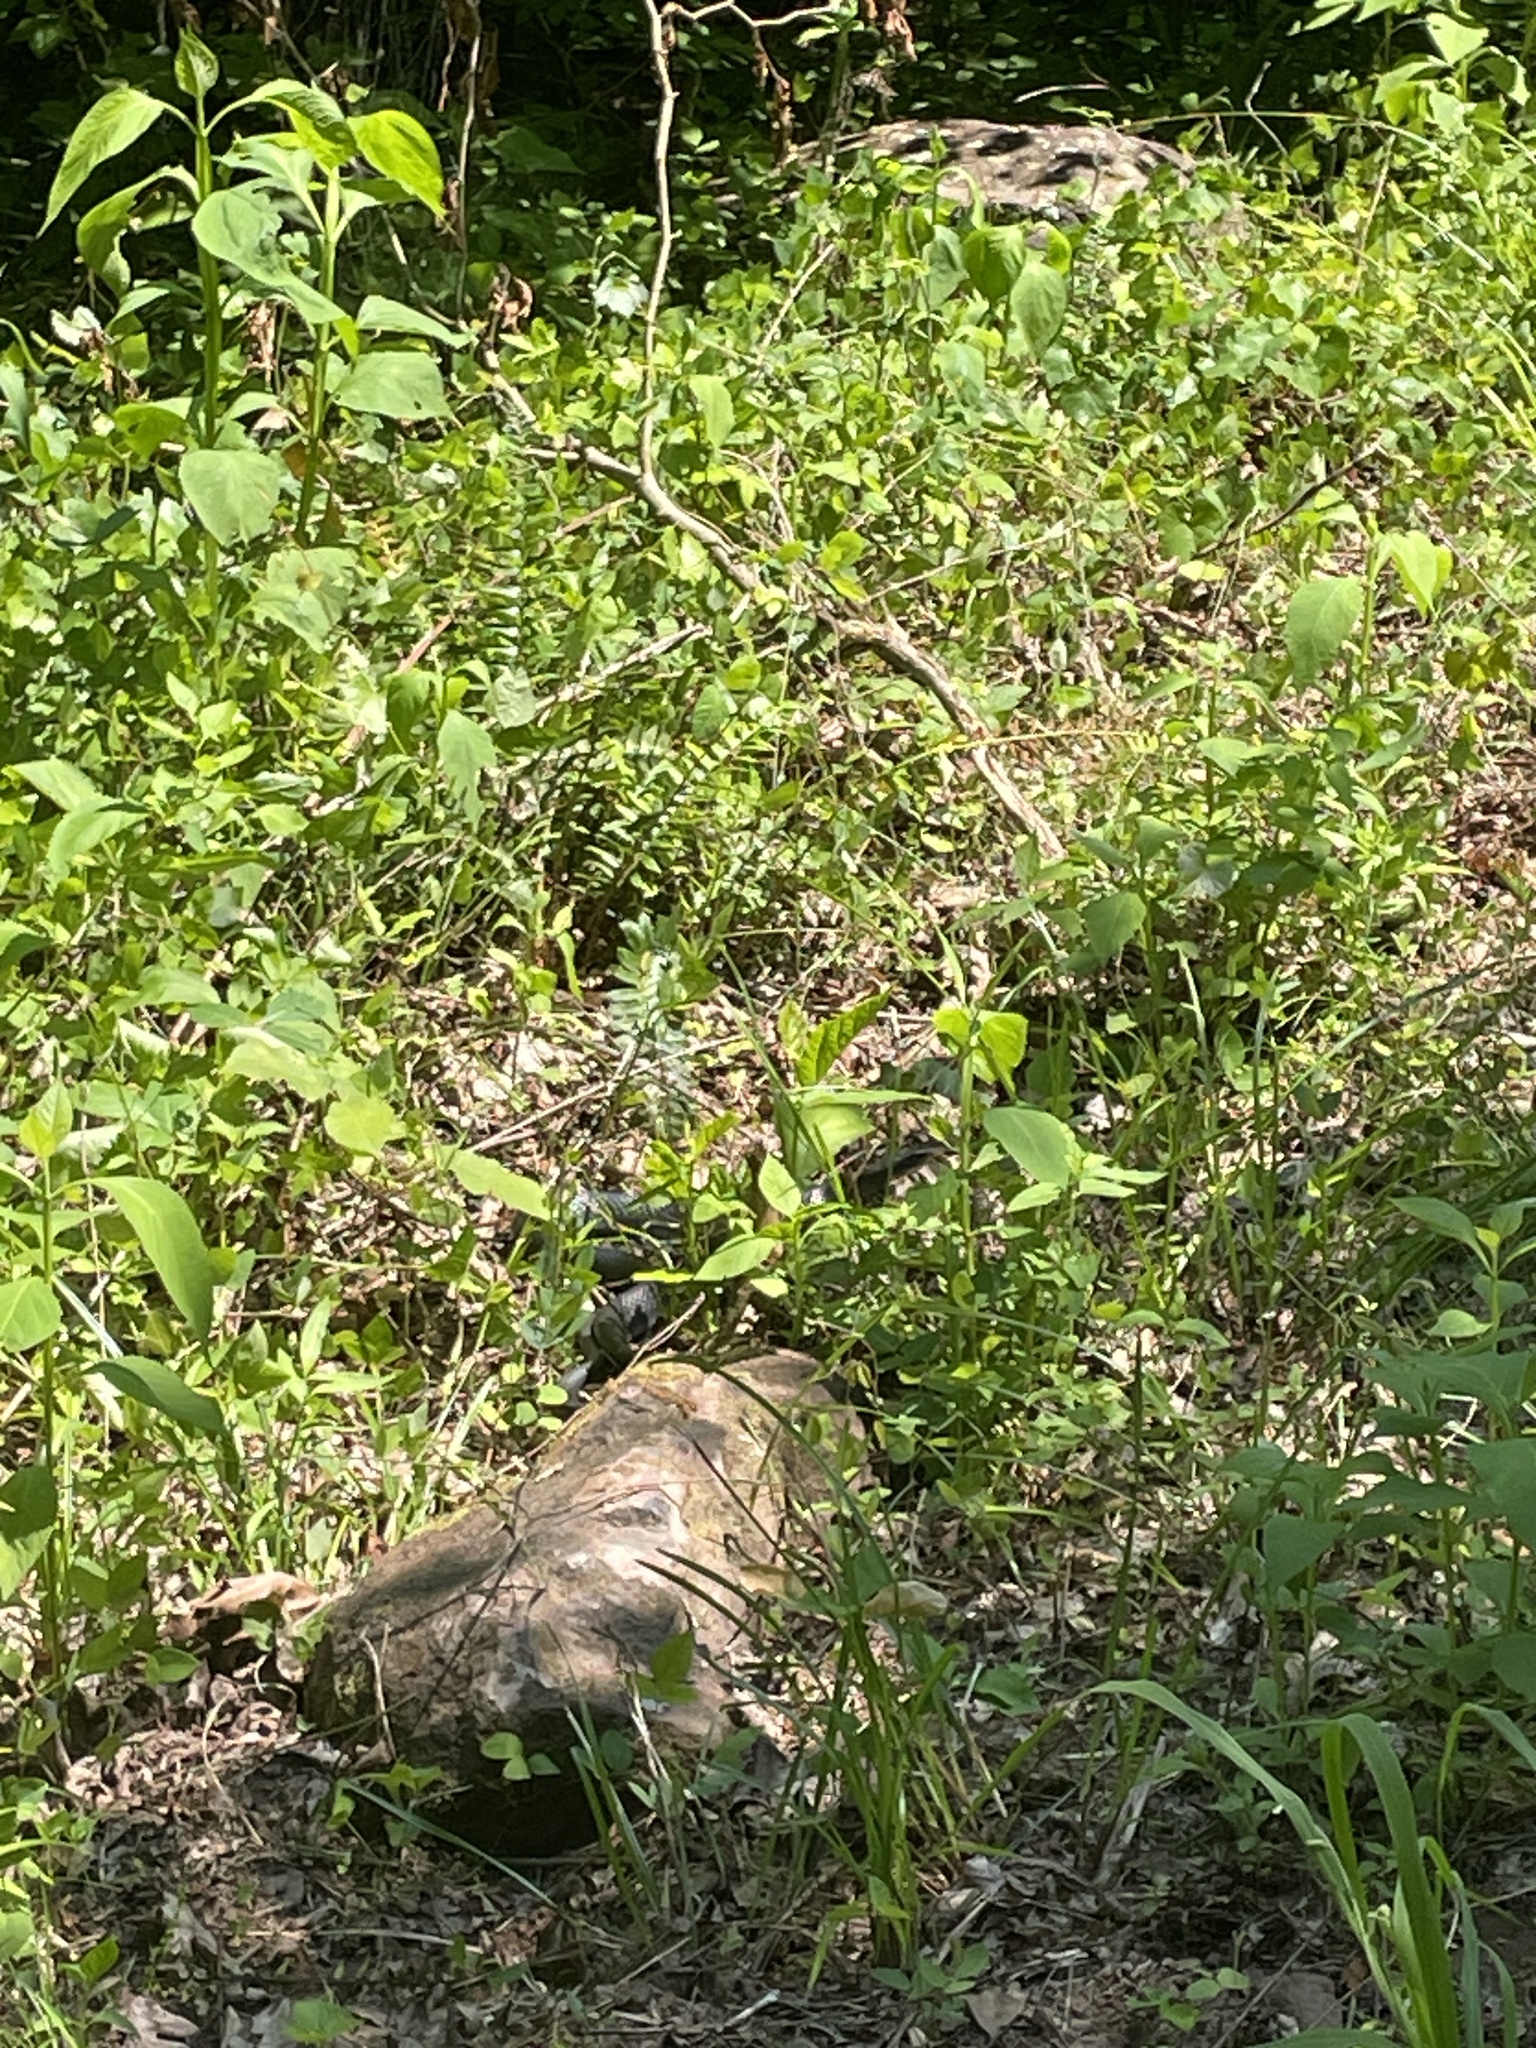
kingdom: Animalia
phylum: Chordata
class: Squamata
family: Colubridae
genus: Coluber
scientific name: Coluber constrictor
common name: Eastern racer
